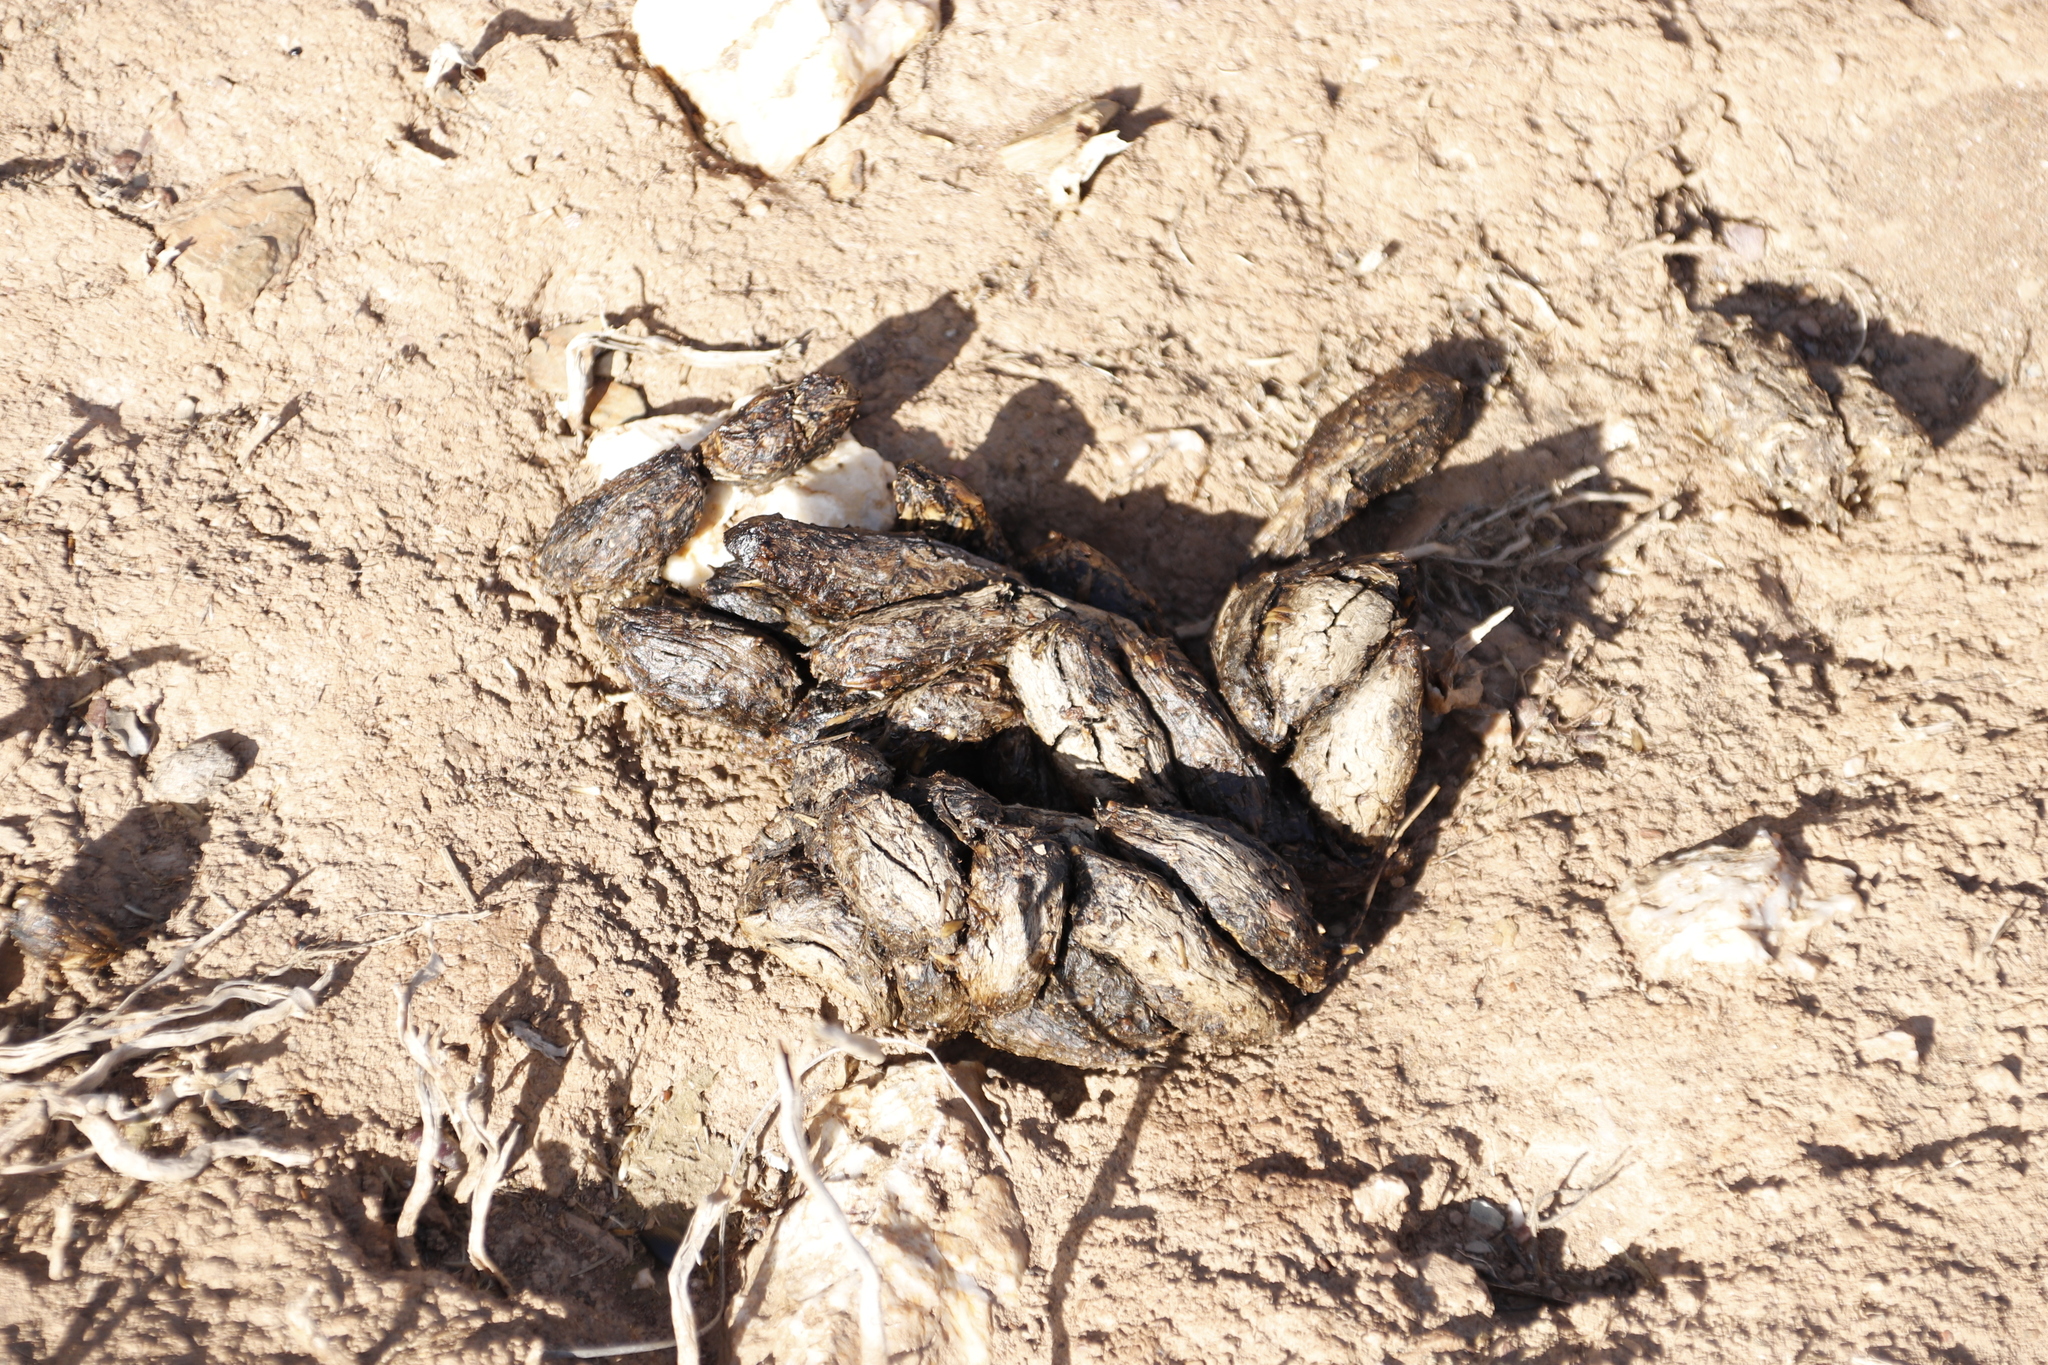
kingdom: Animalia
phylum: Chordata
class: Mammalia
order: Rodentia
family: Hystricidae
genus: Hystrix
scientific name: Hystrix africaeaustralis
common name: Cape porcupine
